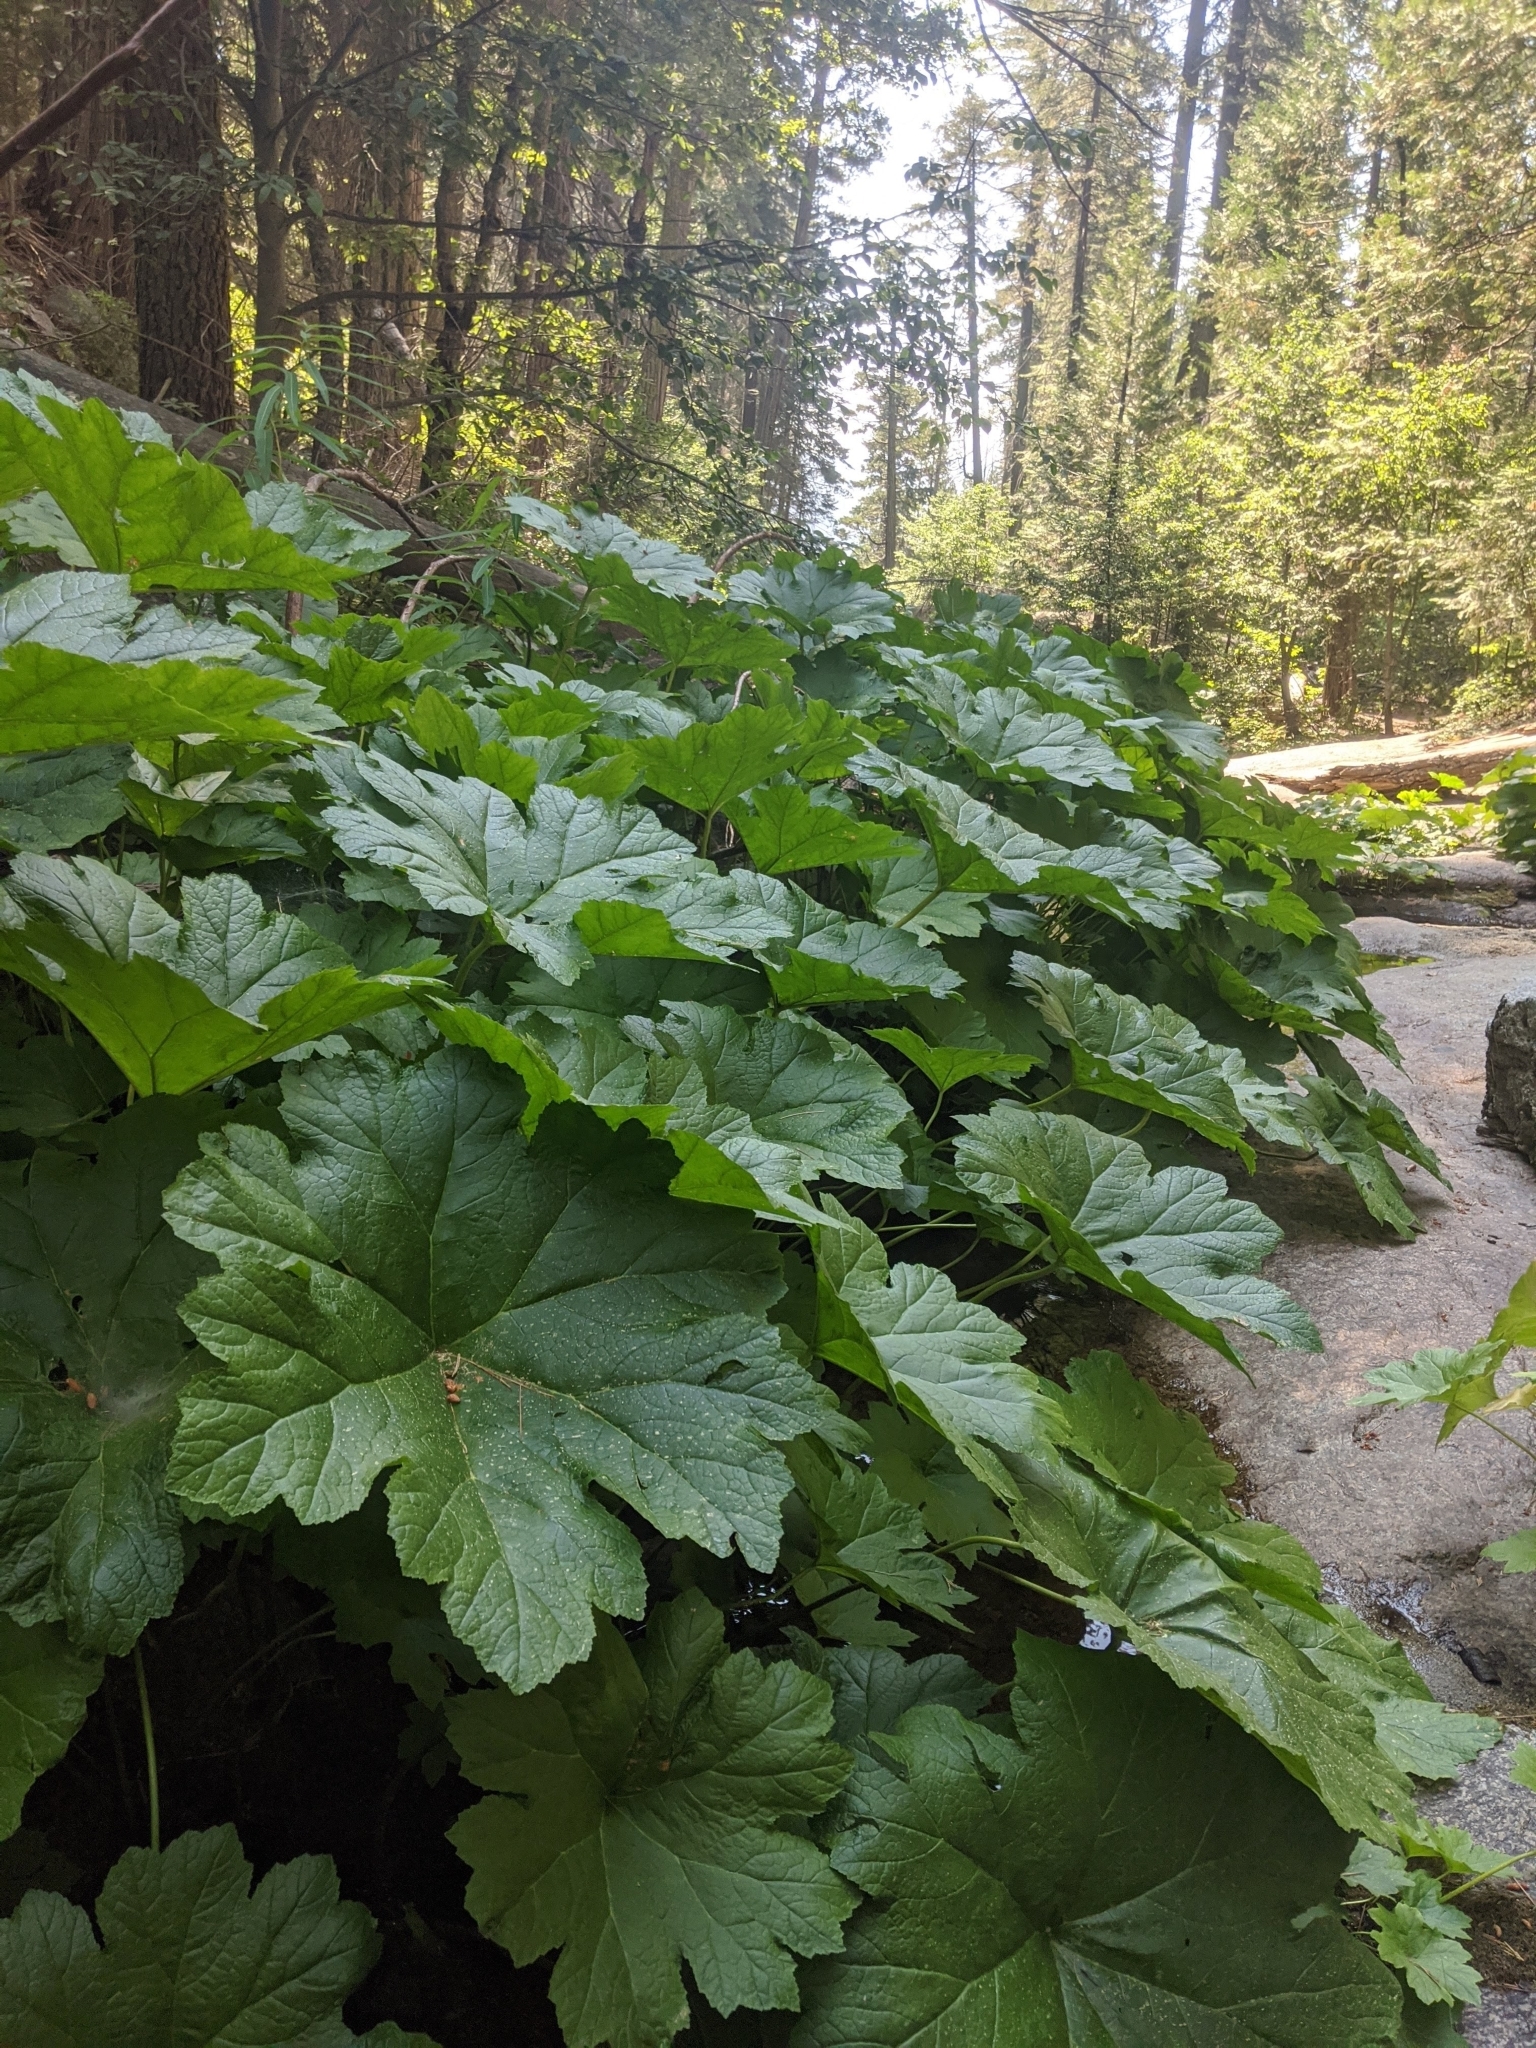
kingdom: Plantae
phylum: Tracheophyta
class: Magnoliopsida
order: Saxifragales
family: Saxifragaceae
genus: Darmera
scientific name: Darmera peltata
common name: Indian-rhubarb
